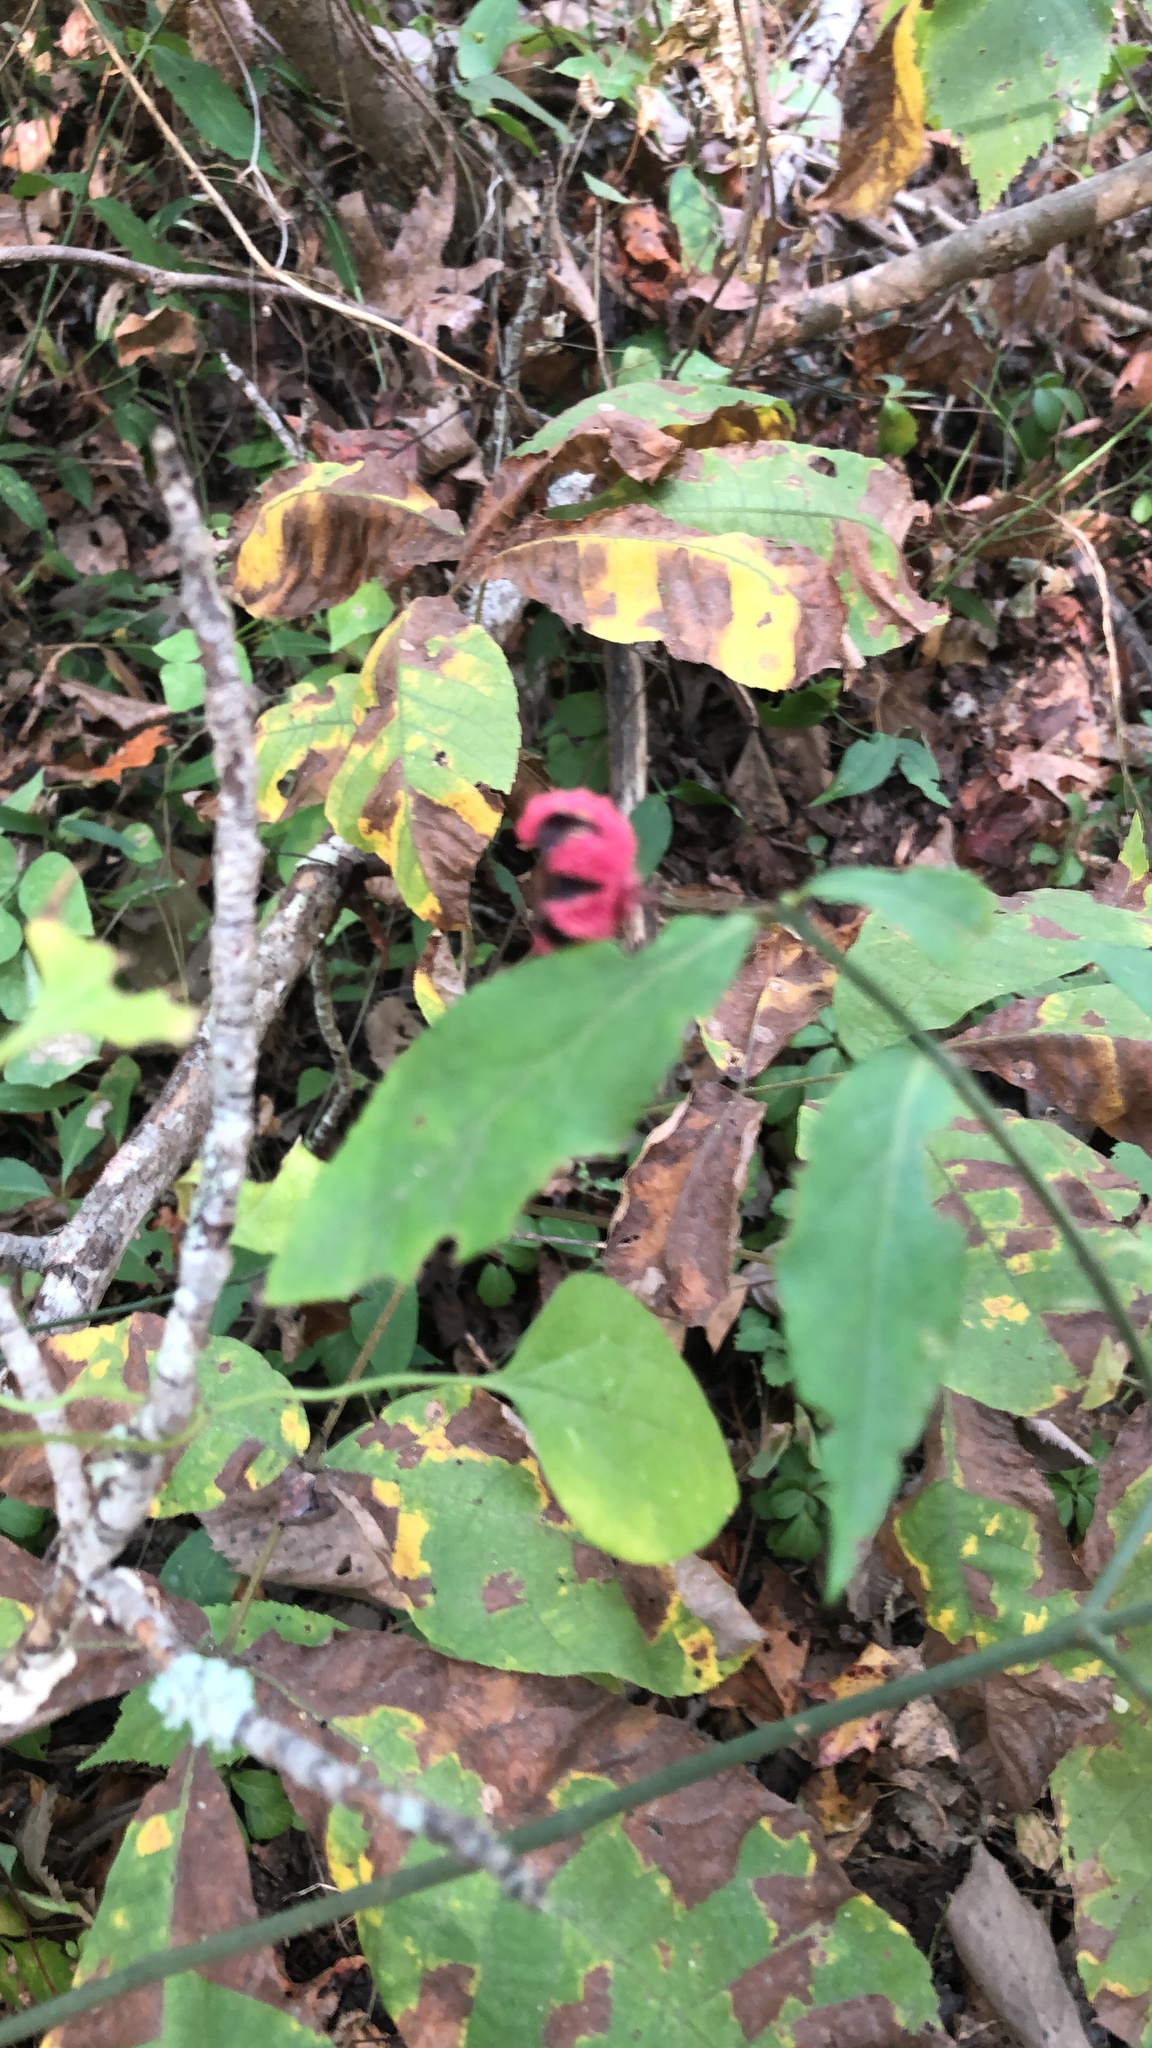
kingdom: Plantae
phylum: Tracheophyta
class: Magnoliopsida
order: Celastrales
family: Celastraceae
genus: Euonymus
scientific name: Euonymus americanus
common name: Bursting-heart
